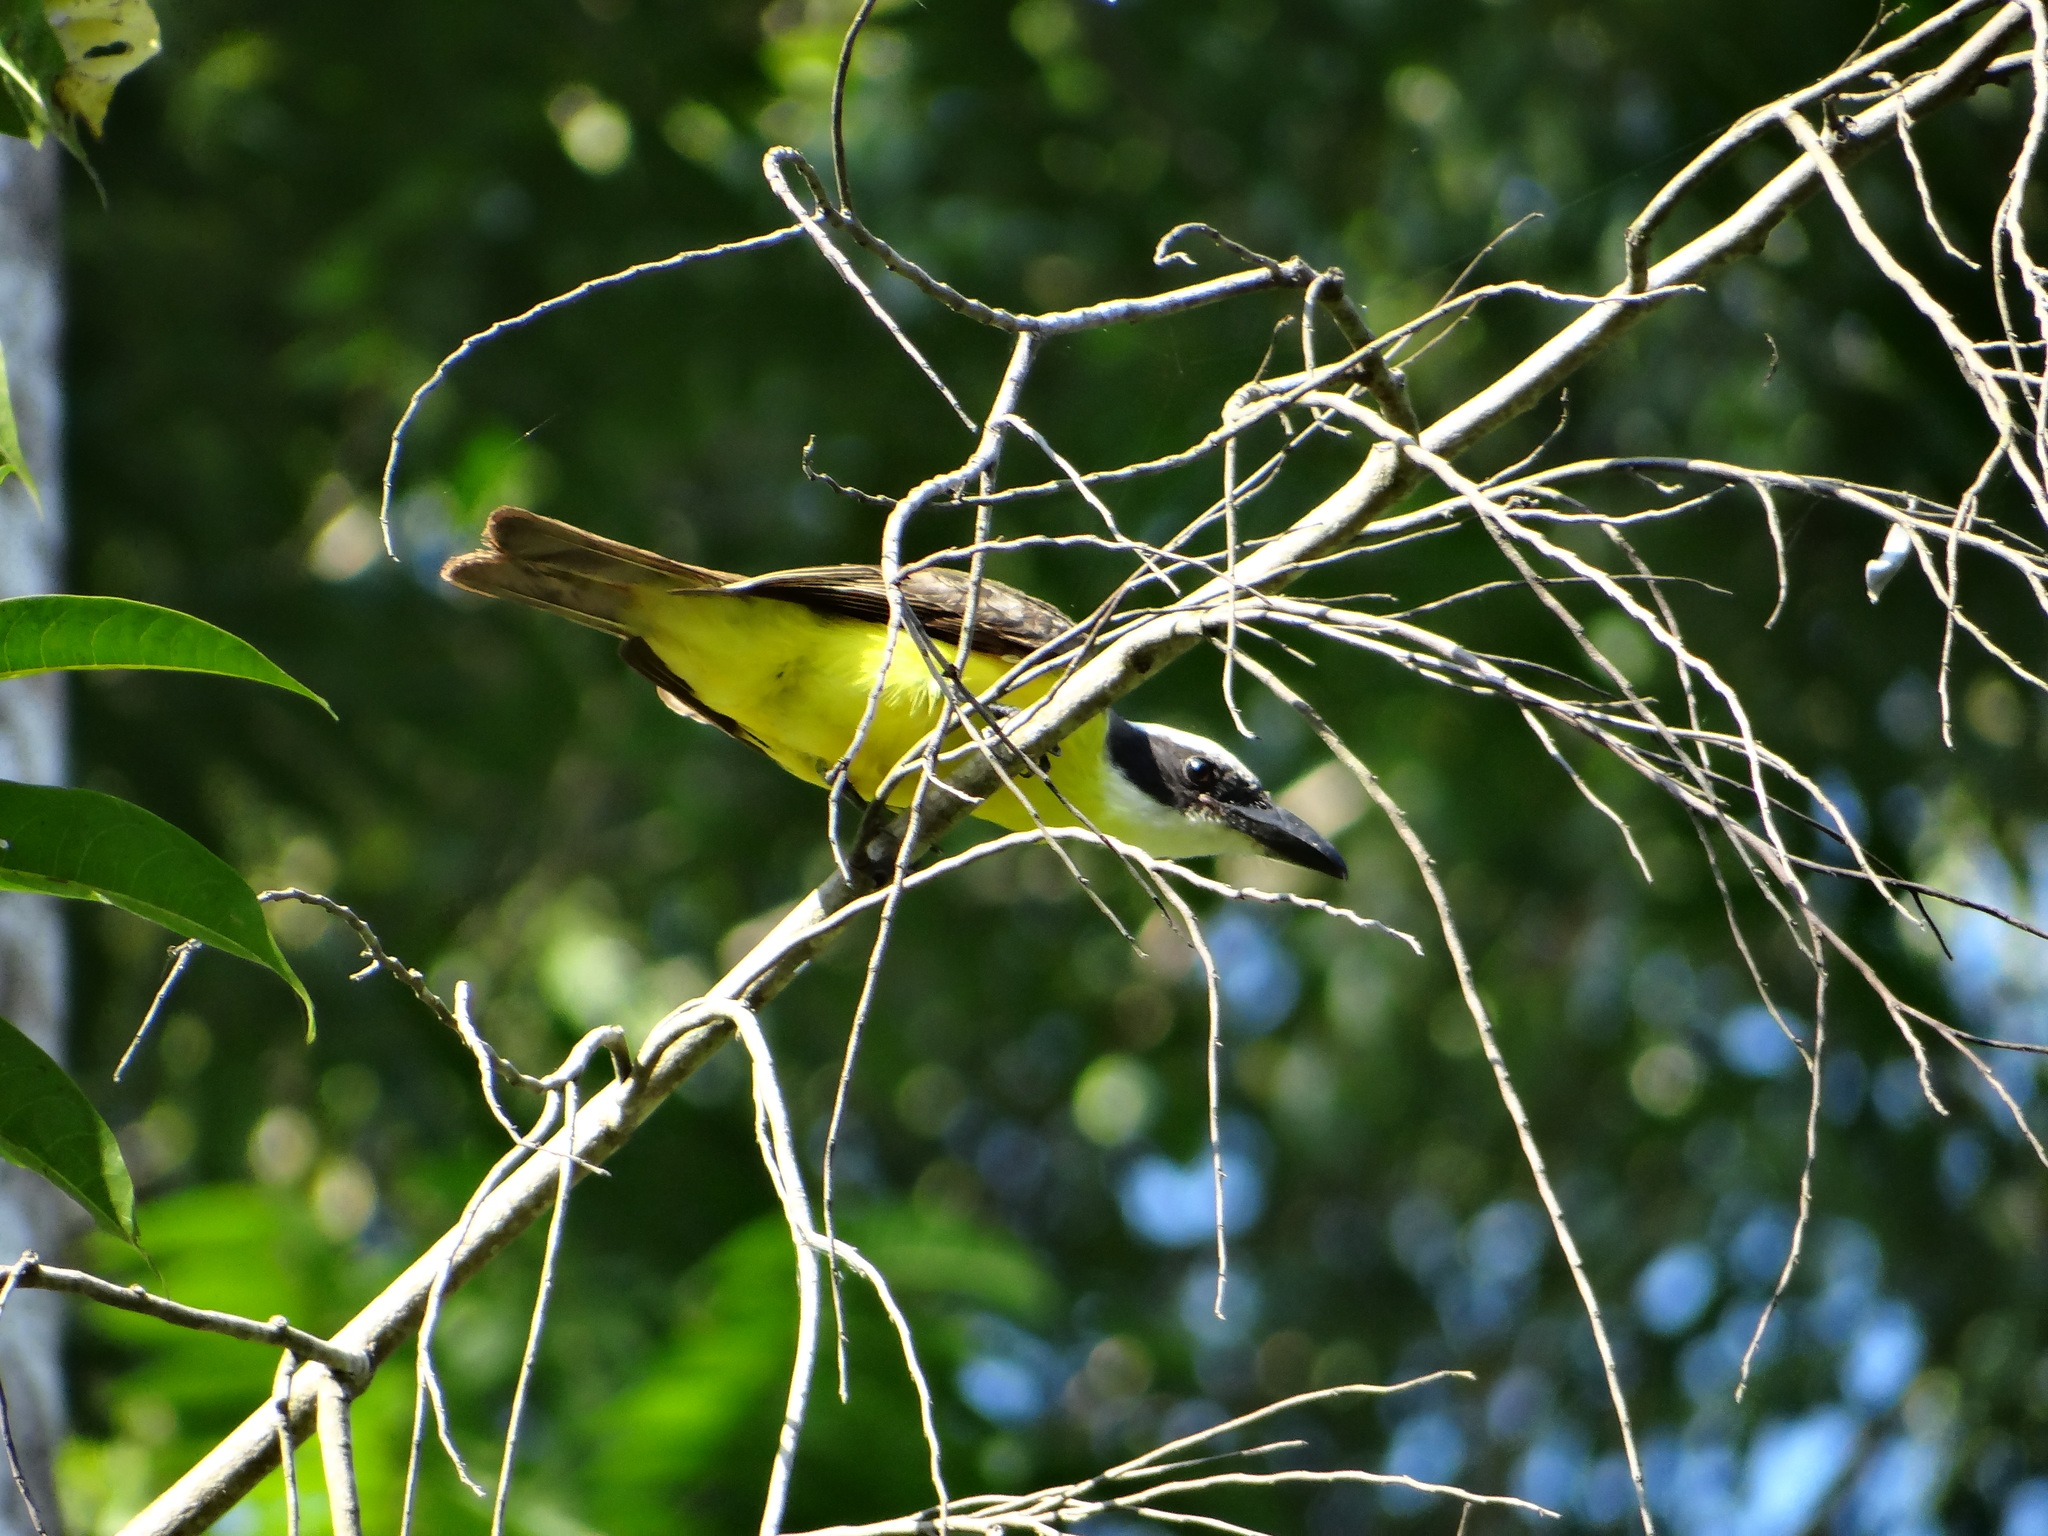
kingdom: Animalia
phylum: Chordata
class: Aves
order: Passeriformes
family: Tyrannidae
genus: Megarynchus
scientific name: Megarynchus pitangua
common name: Boat-billed flycatcher
